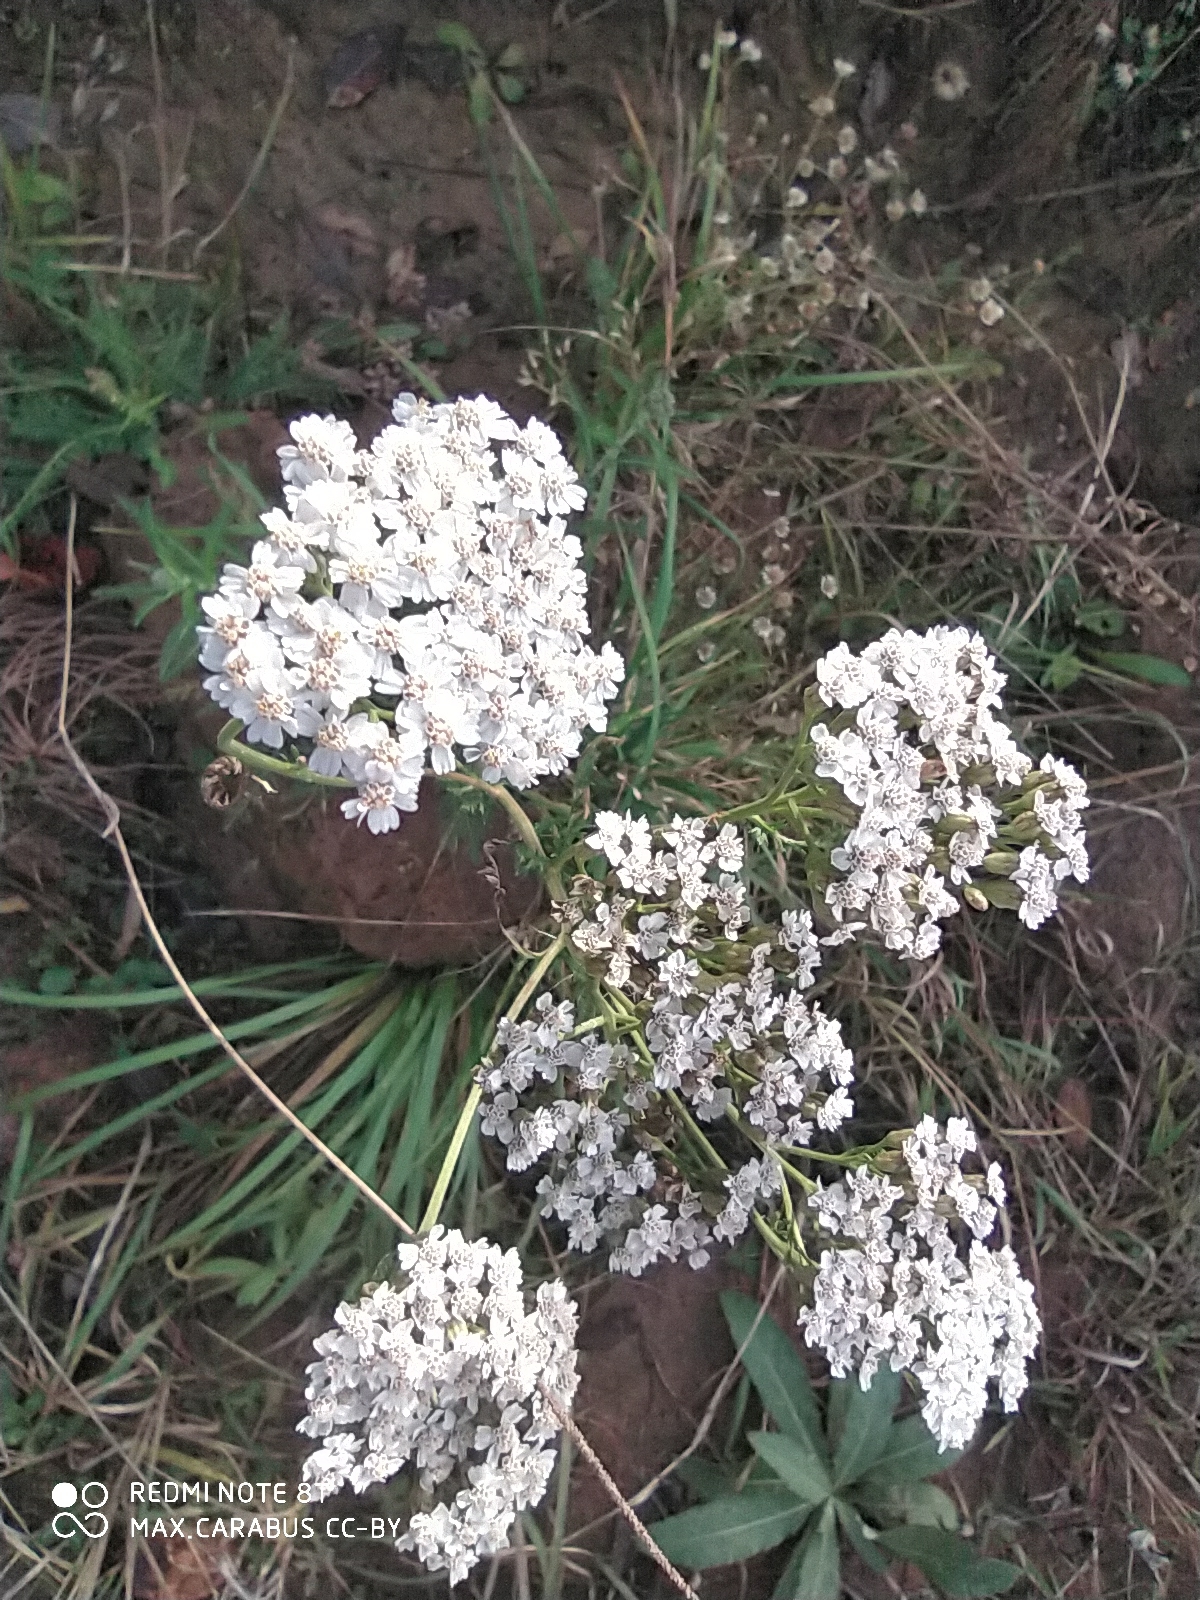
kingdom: Plantae
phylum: Tracheophyta
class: Magnoliopsida
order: Asterales
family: Asteraceae
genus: Achillea
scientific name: Achillea millefolium
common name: Yarrow
